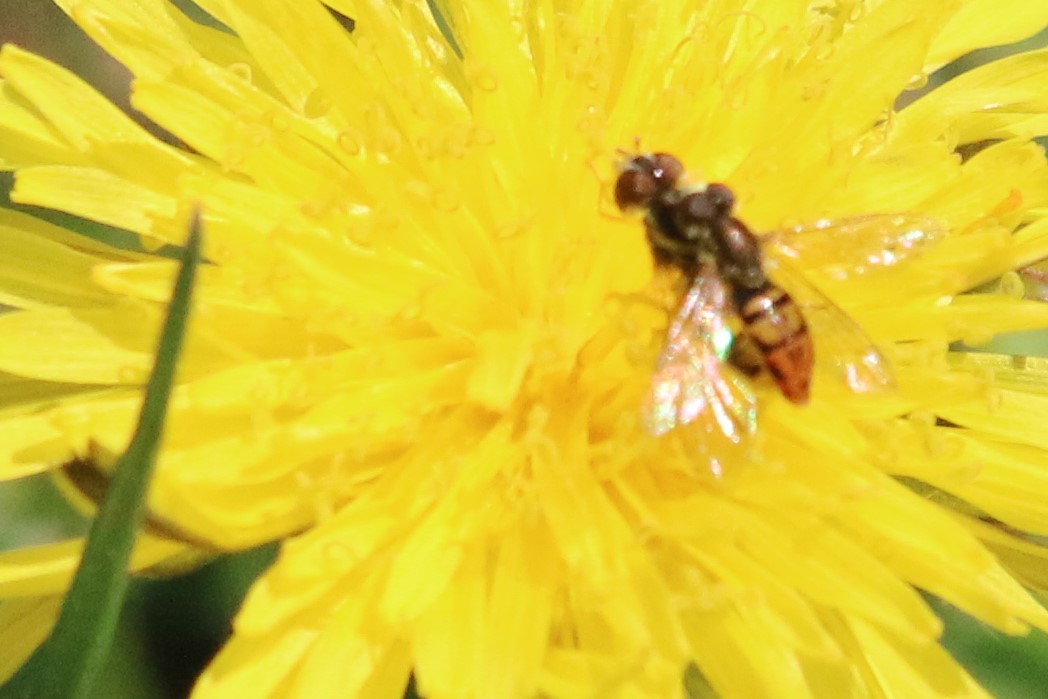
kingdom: Animalia
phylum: Arthropoda
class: Insecta
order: Diptera
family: Syrphidae
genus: Toxomerus
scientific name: Toxomerus marginatus
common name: Syrphid fly
